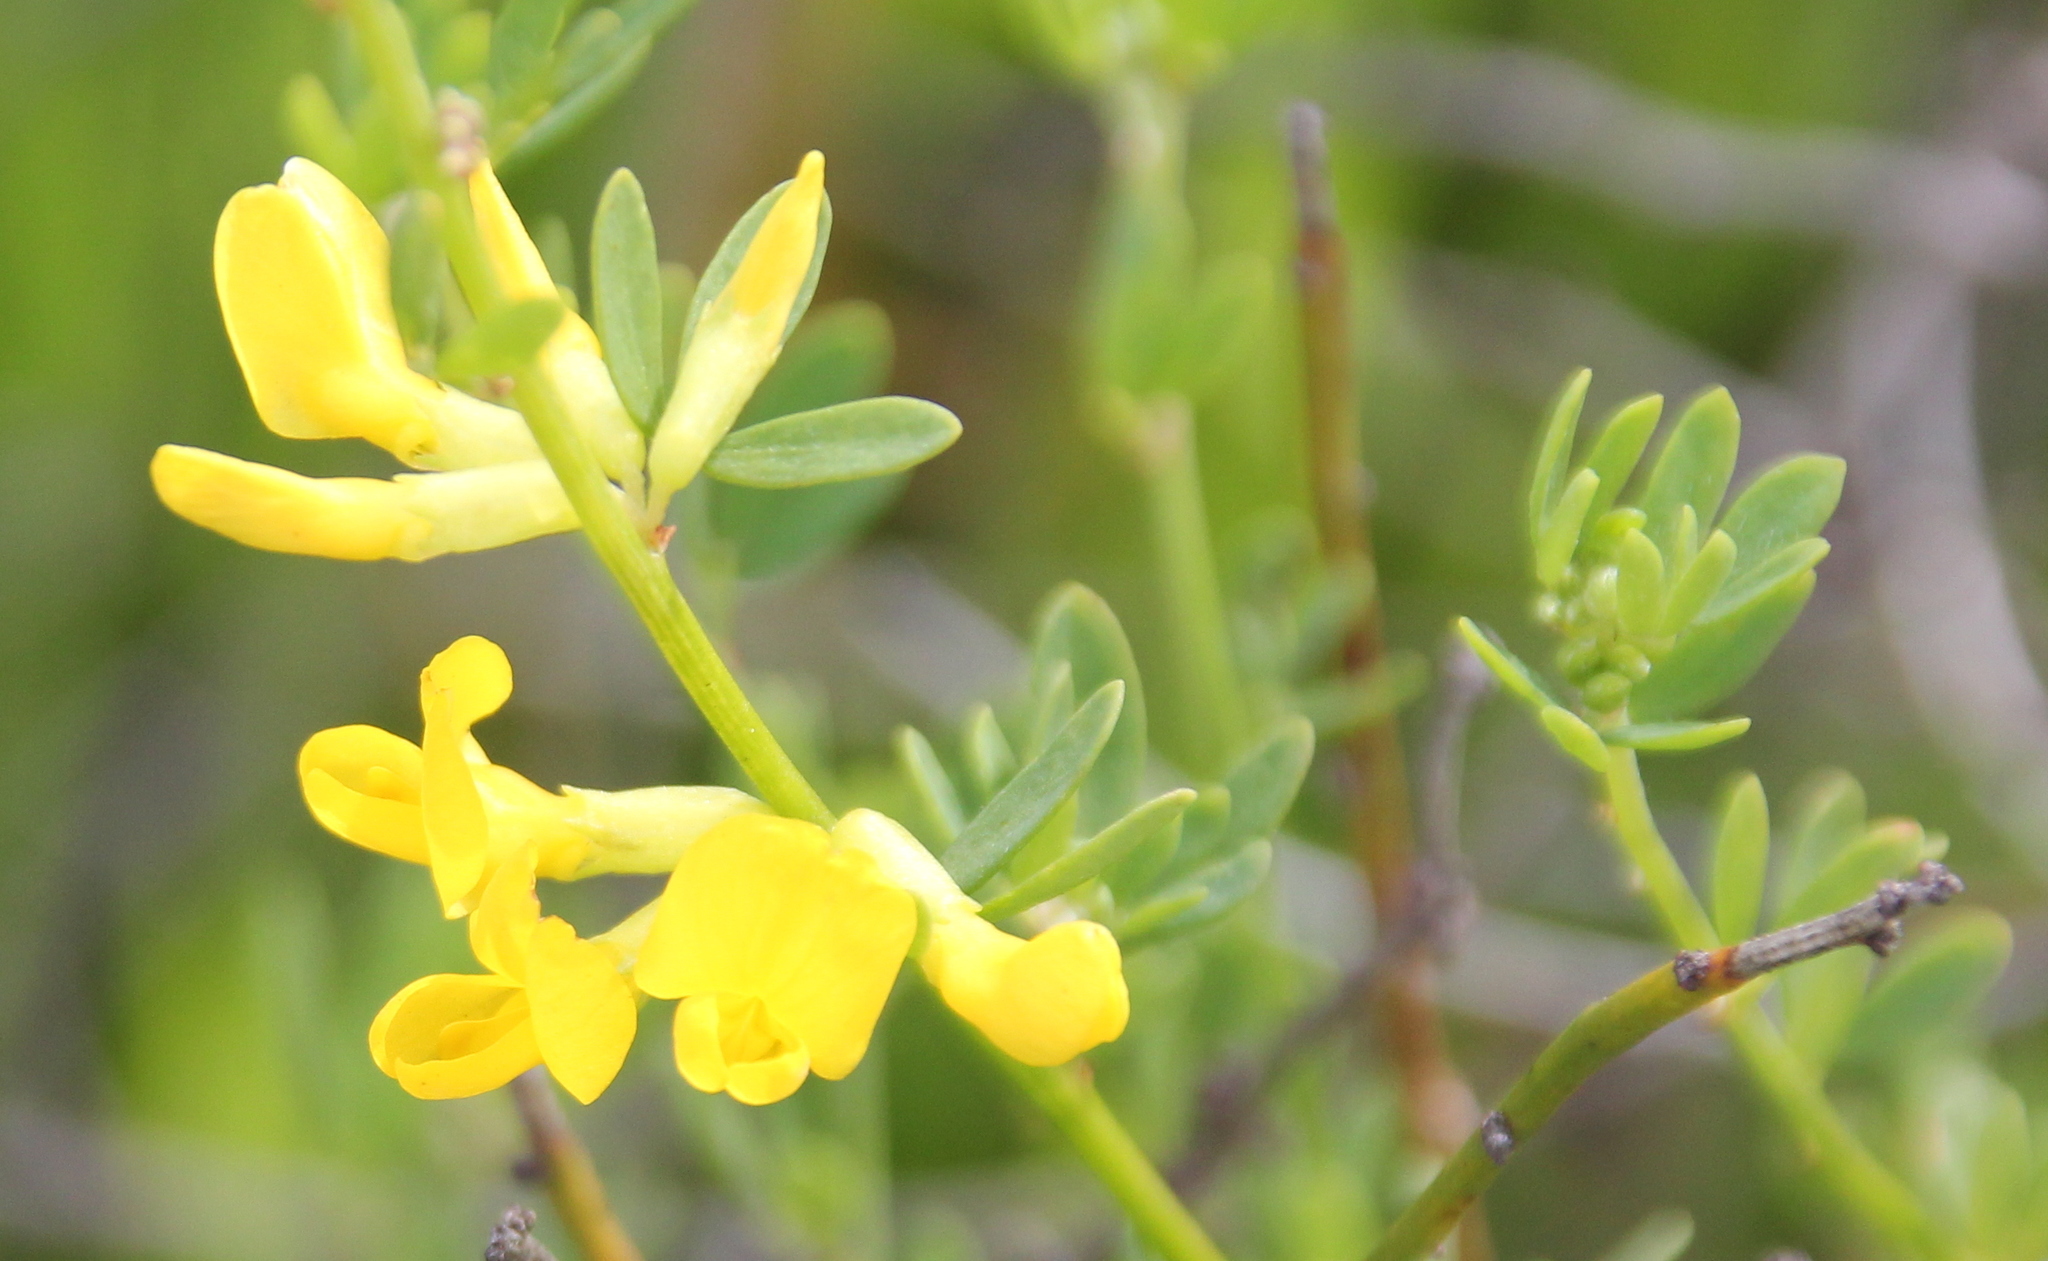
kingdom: Plantae
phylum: Tracheophyta
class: Magnoliopsida
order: Fabales
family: Fabaceae
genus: Acmispon
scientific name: Acmispon glaber
